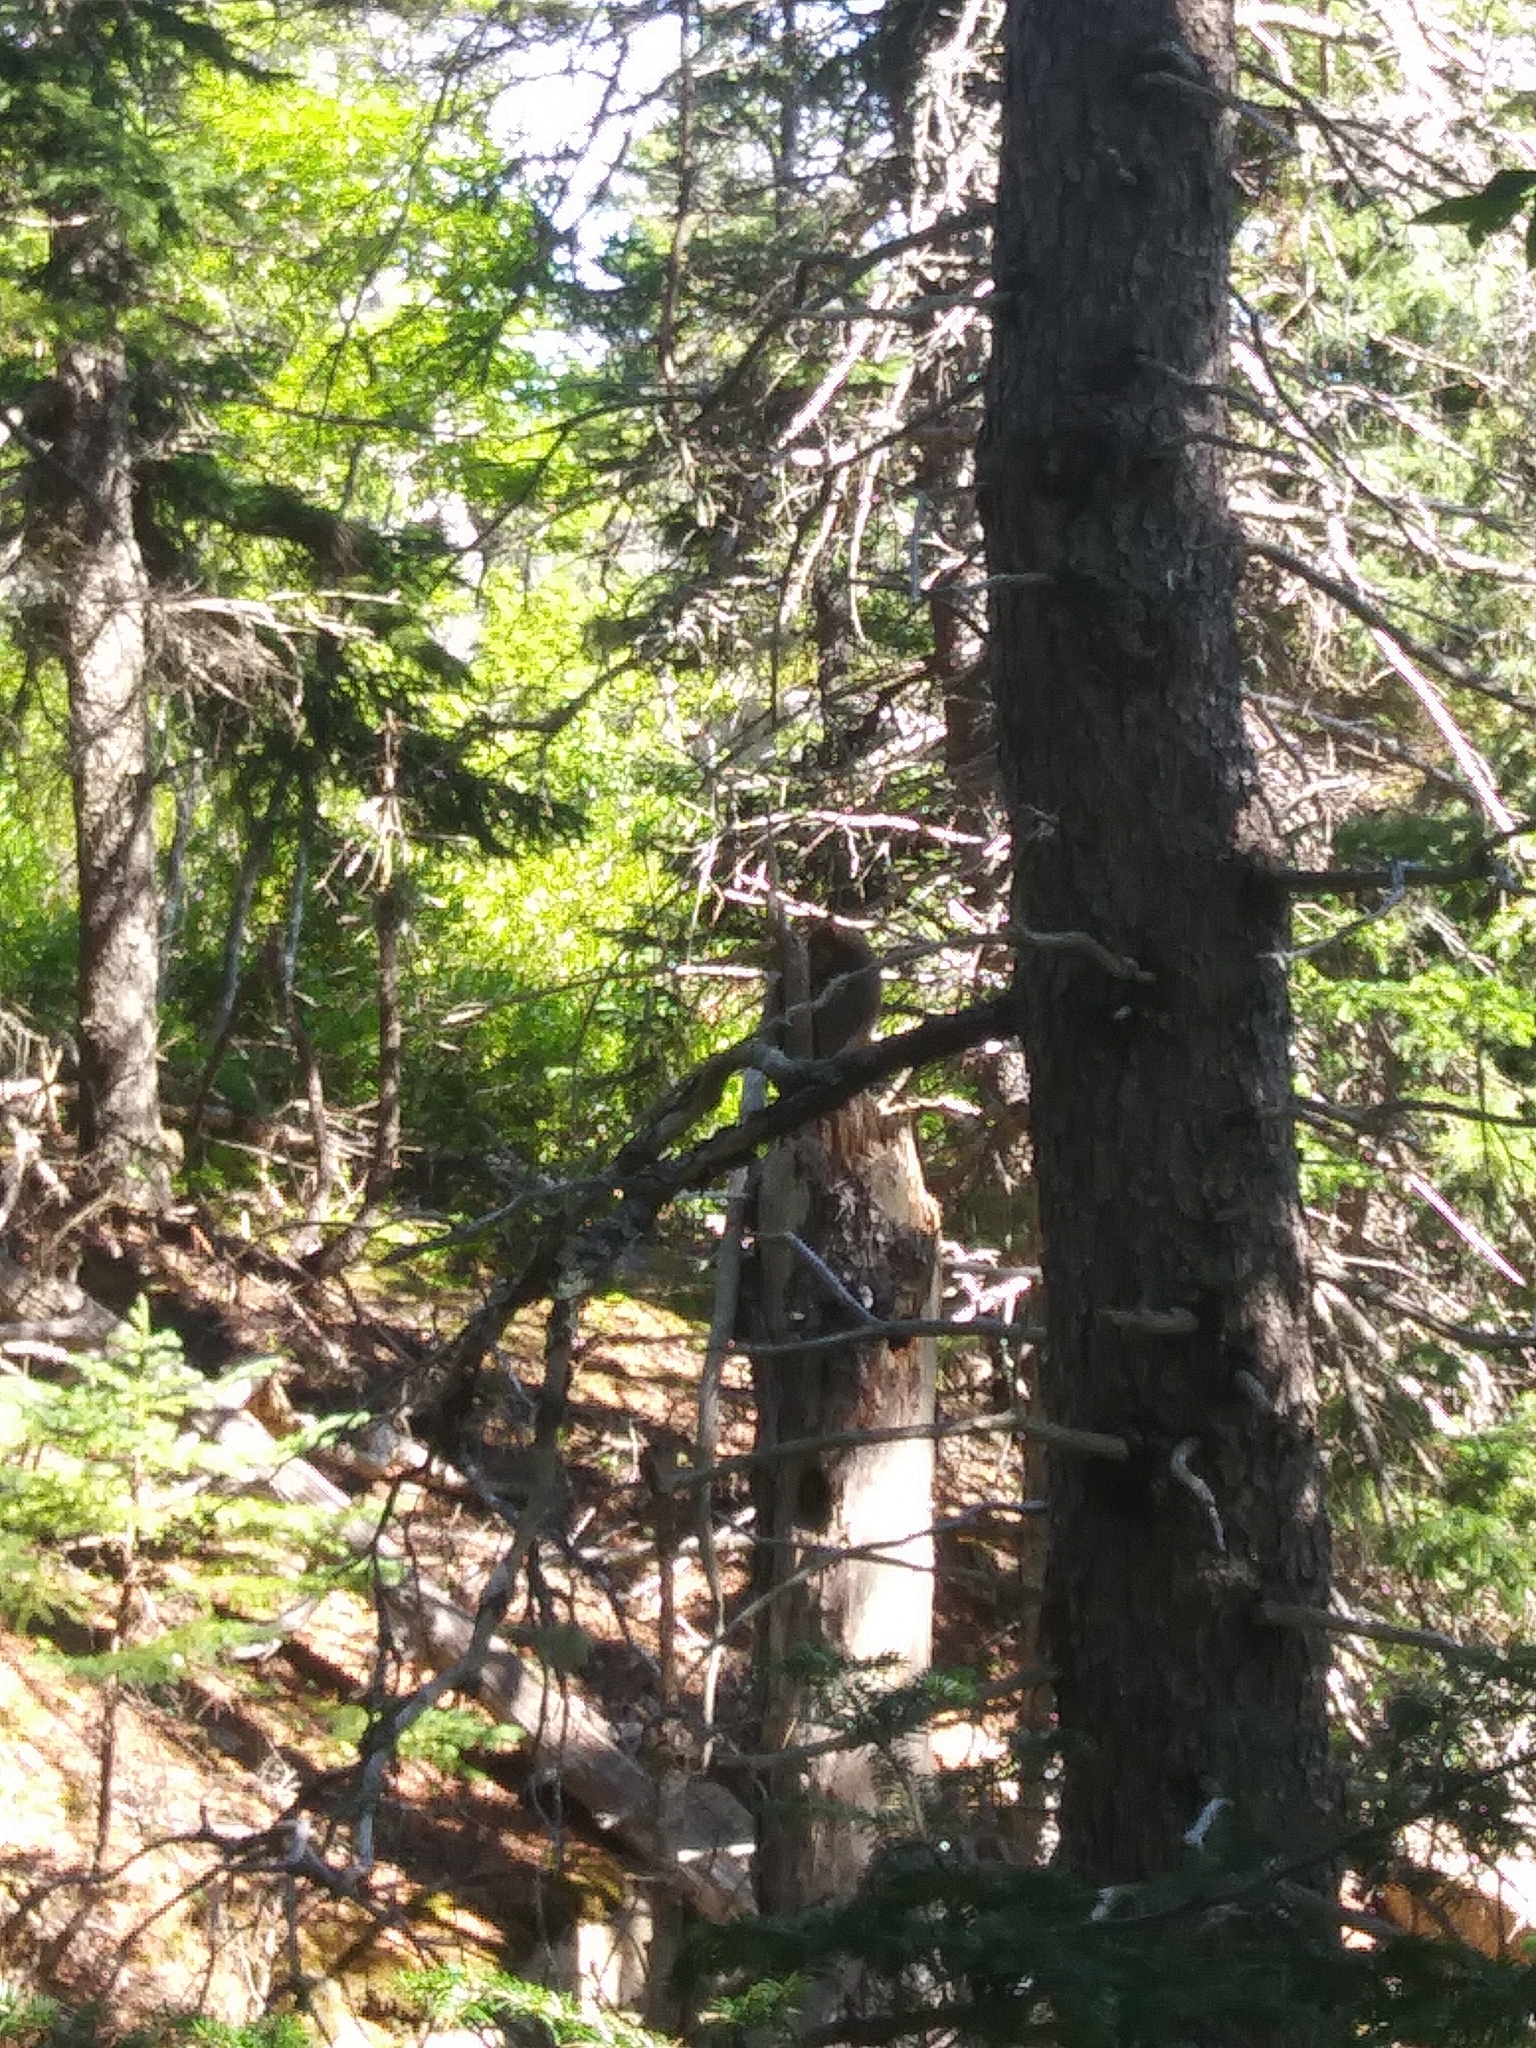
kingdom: Animalia
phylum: Chordata
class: Mammalia
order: Rodentia
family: Sciuridae
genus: Tamiasciurus
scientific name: Tamiasciurus hudsonicus
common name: Red squirrel
